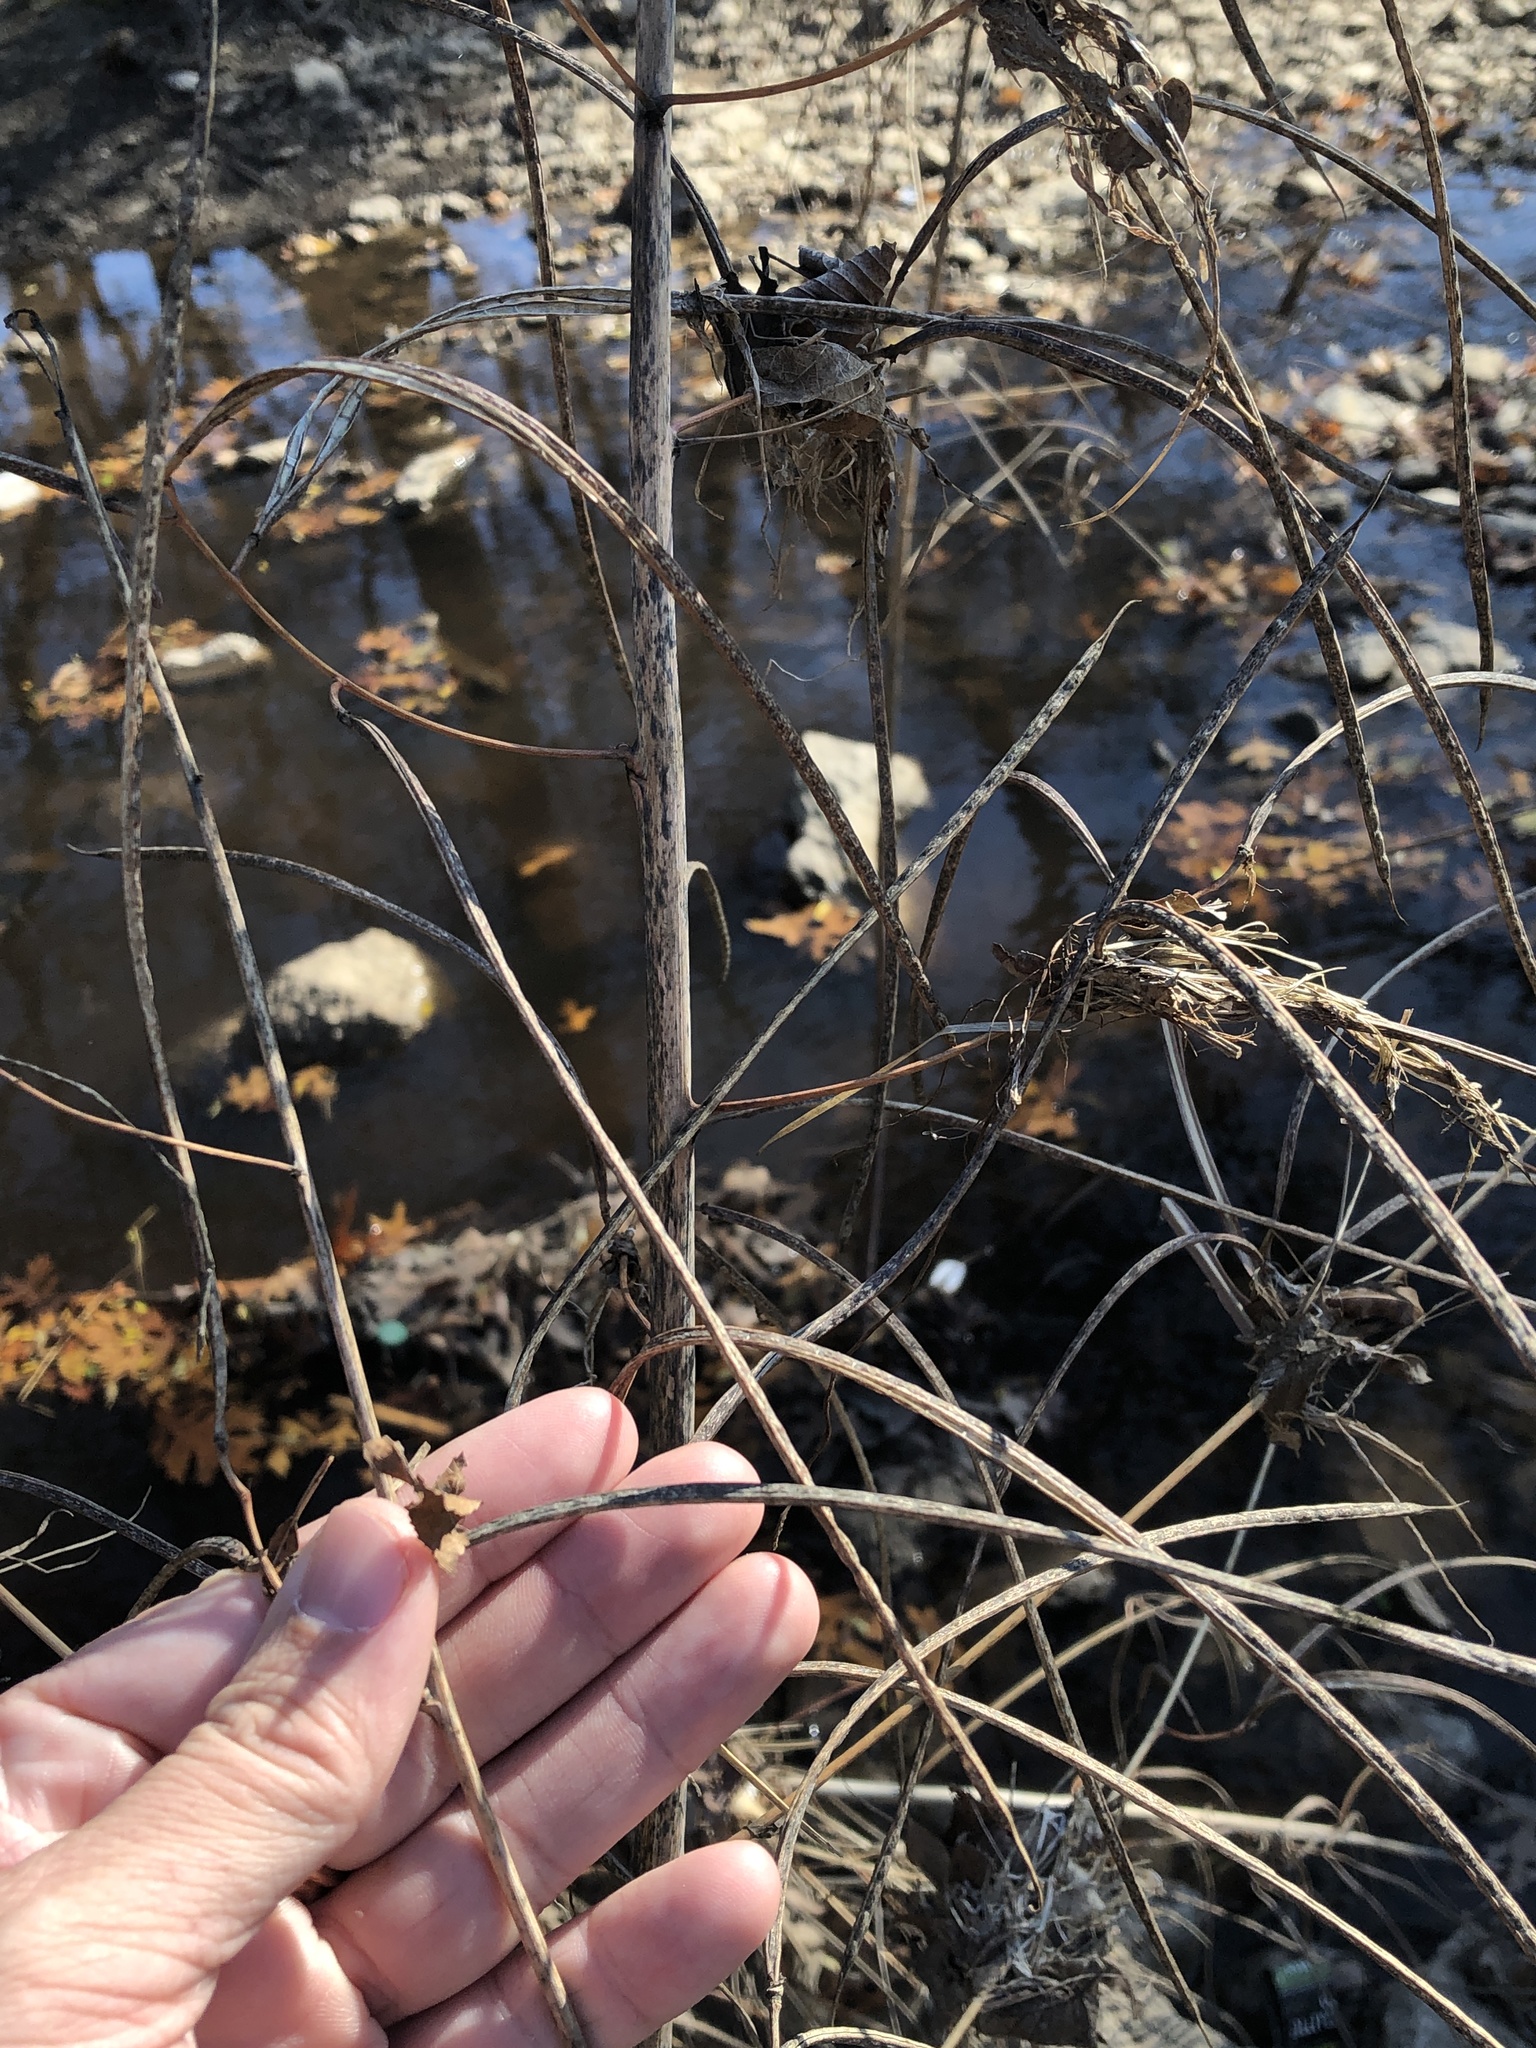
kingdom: Plantae
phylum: Tracheophyta
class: Magnoliopsida
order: Fabales
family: Fabaceae
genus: Sesbania
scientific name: Sesbania herbacea
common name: Bigpod sesbania
